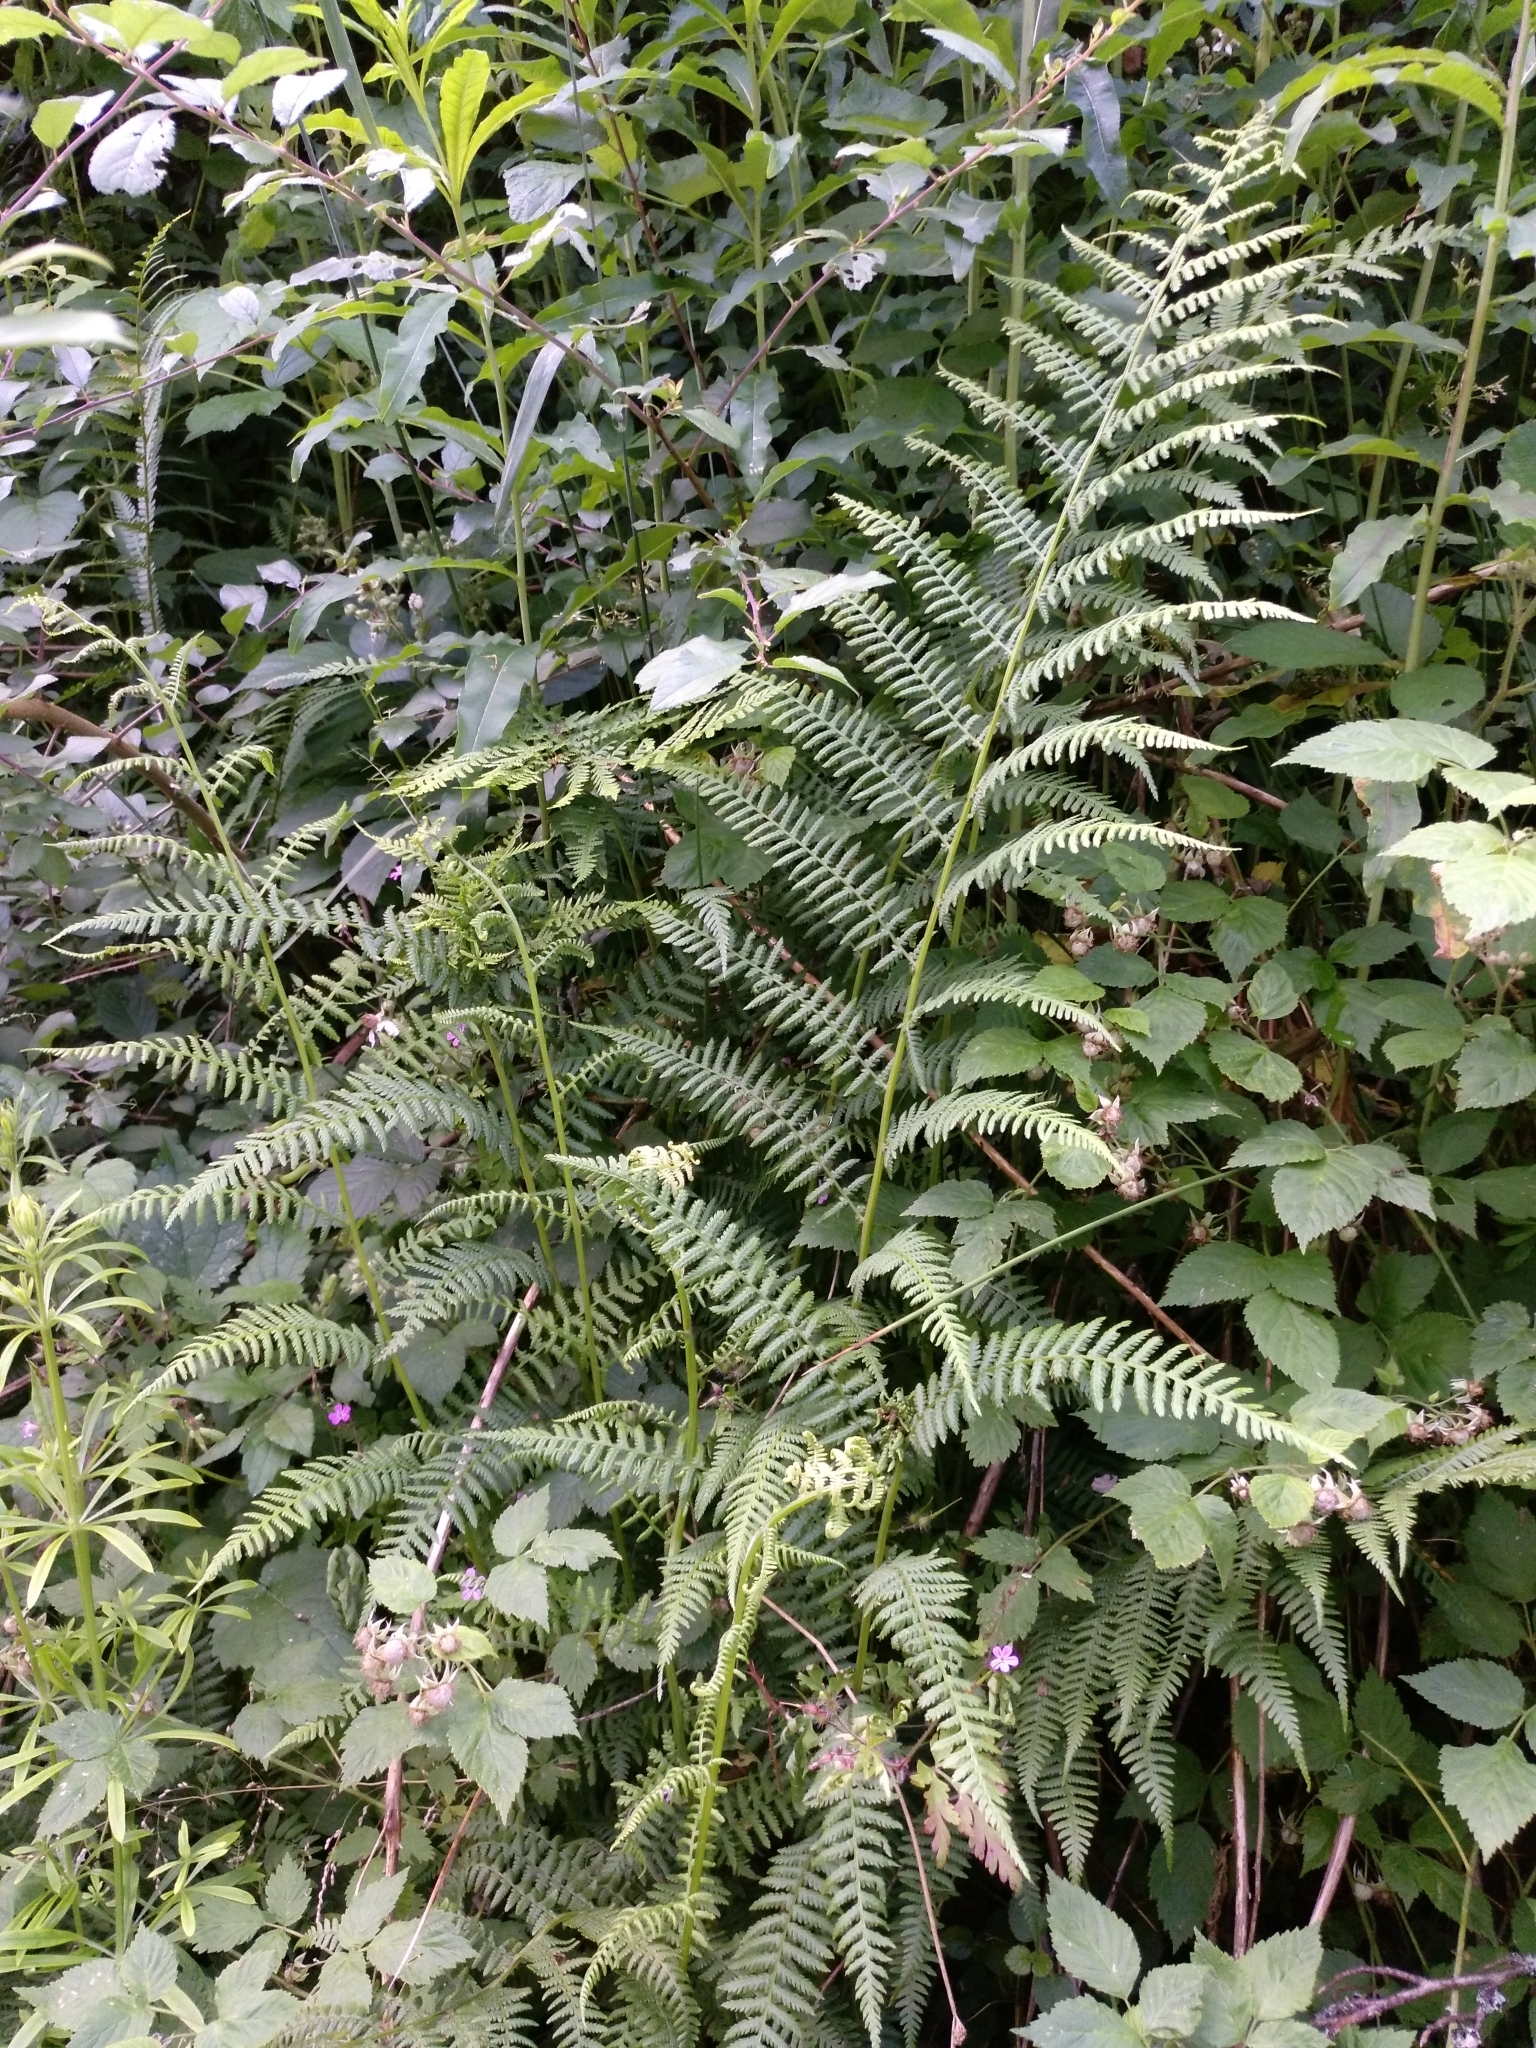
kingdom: Plantae
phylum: Tracheophyta
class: Polypodiopsida
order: Polypodiales
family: Athyriaceae
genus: Athyrium
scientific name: Athyrium filix-femina
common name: Lady fern
